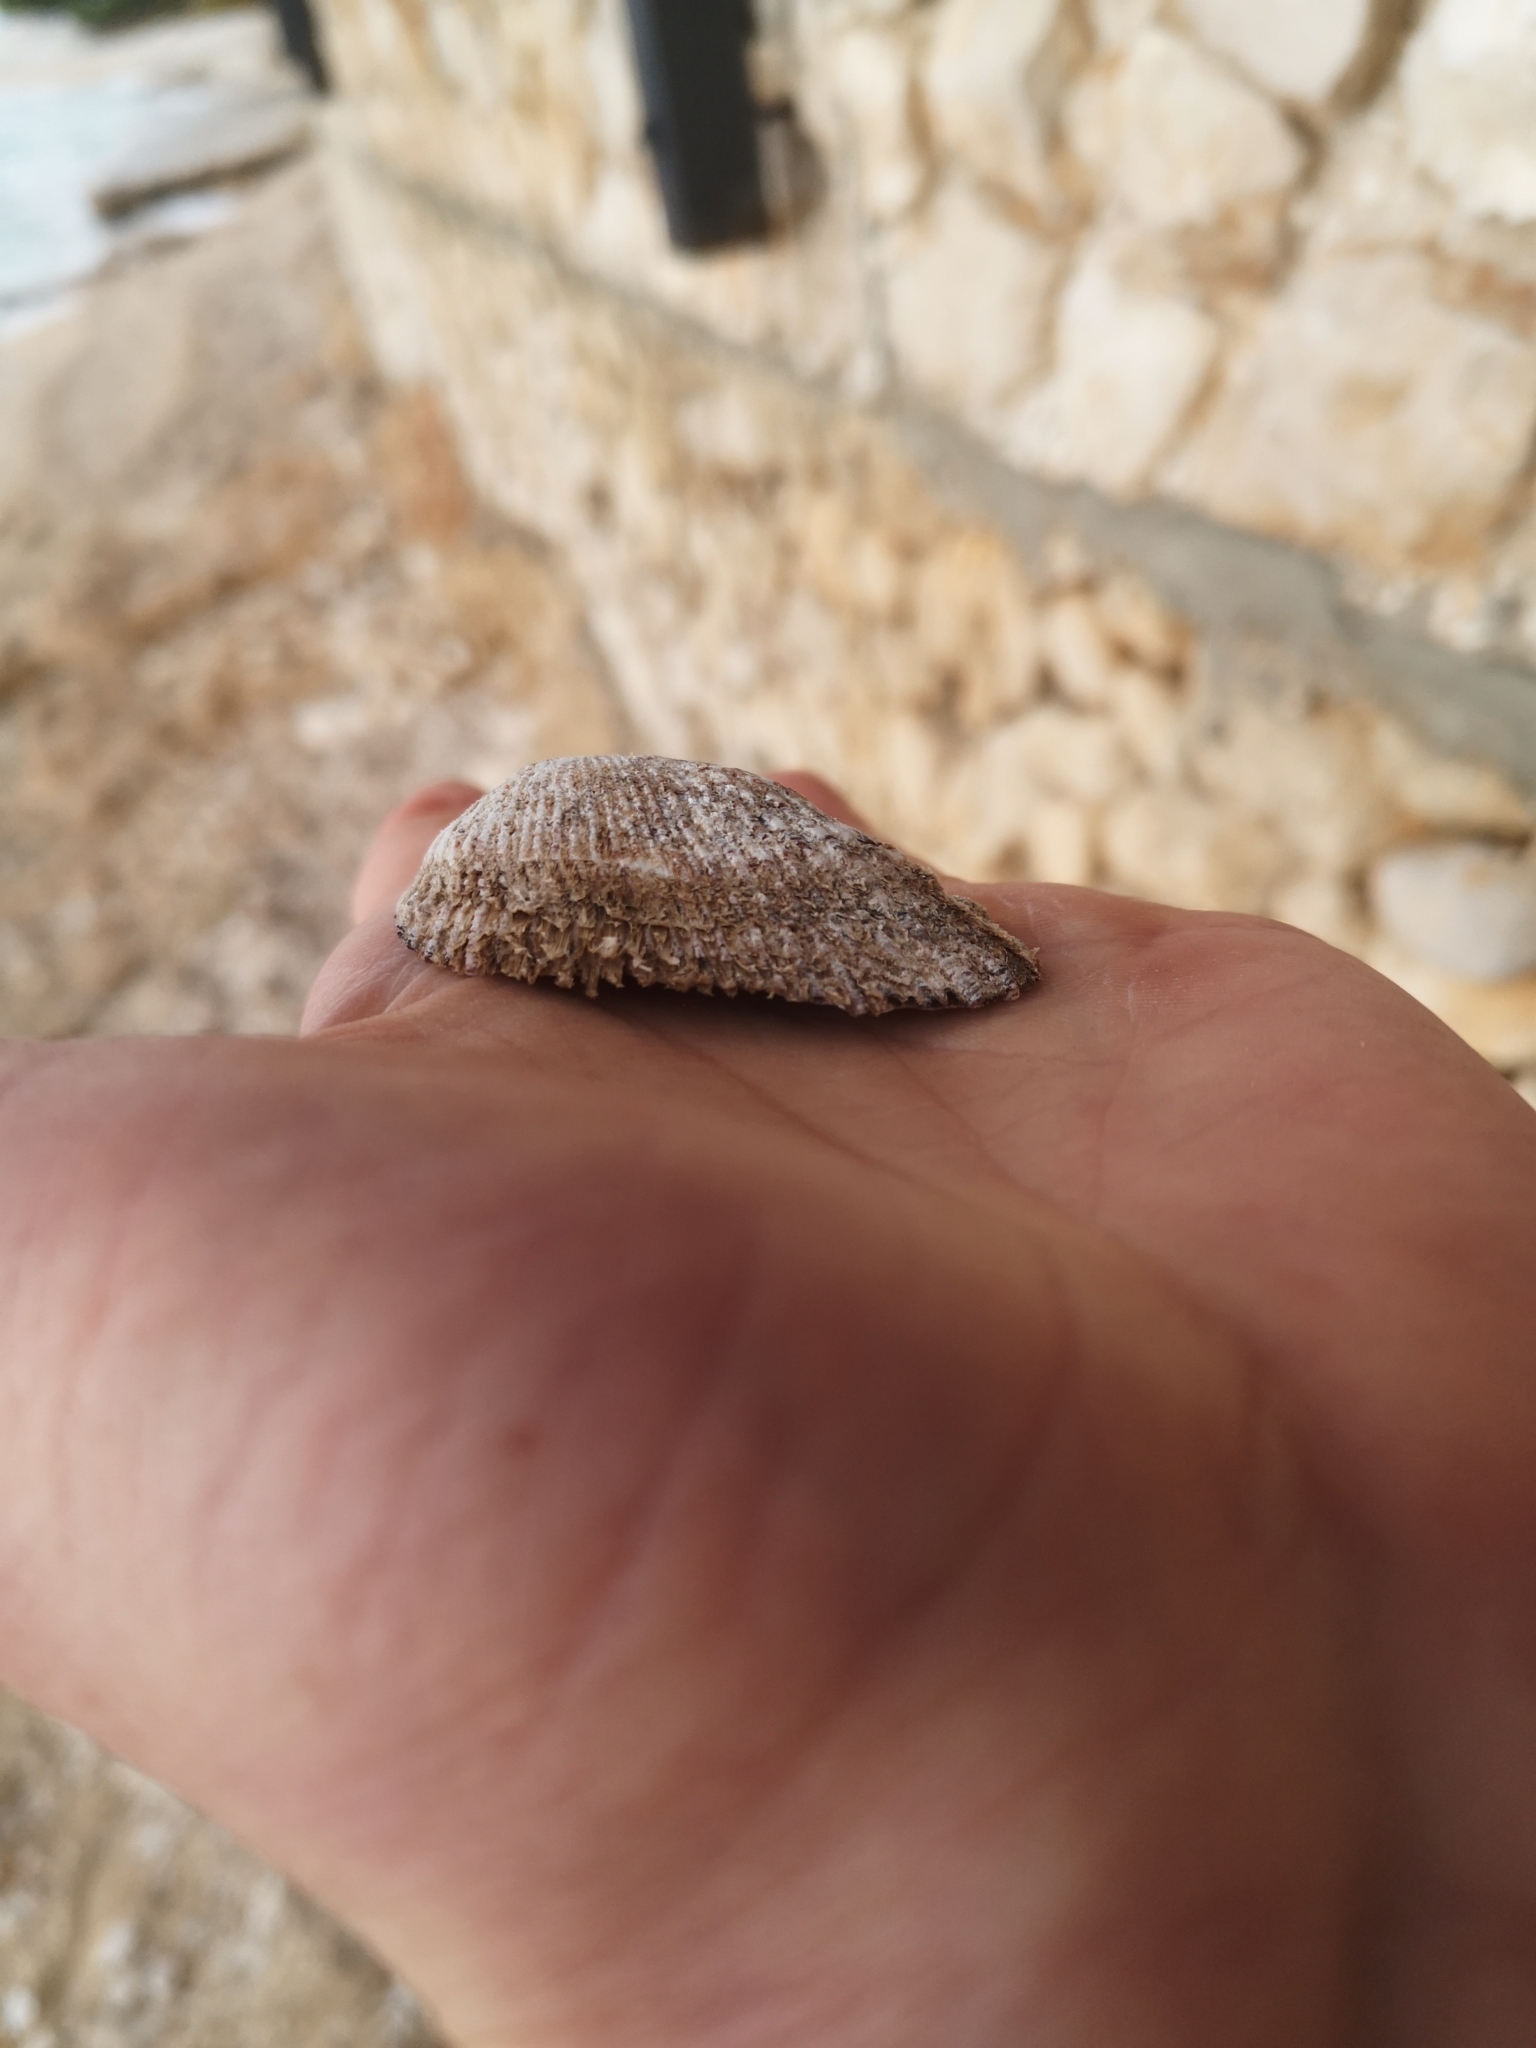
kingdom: Animalia
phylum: Mollusca
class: Bivalvia
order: Arcida
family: Arcidae
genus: Arca
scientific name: Arca noae
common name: Noah's arch
